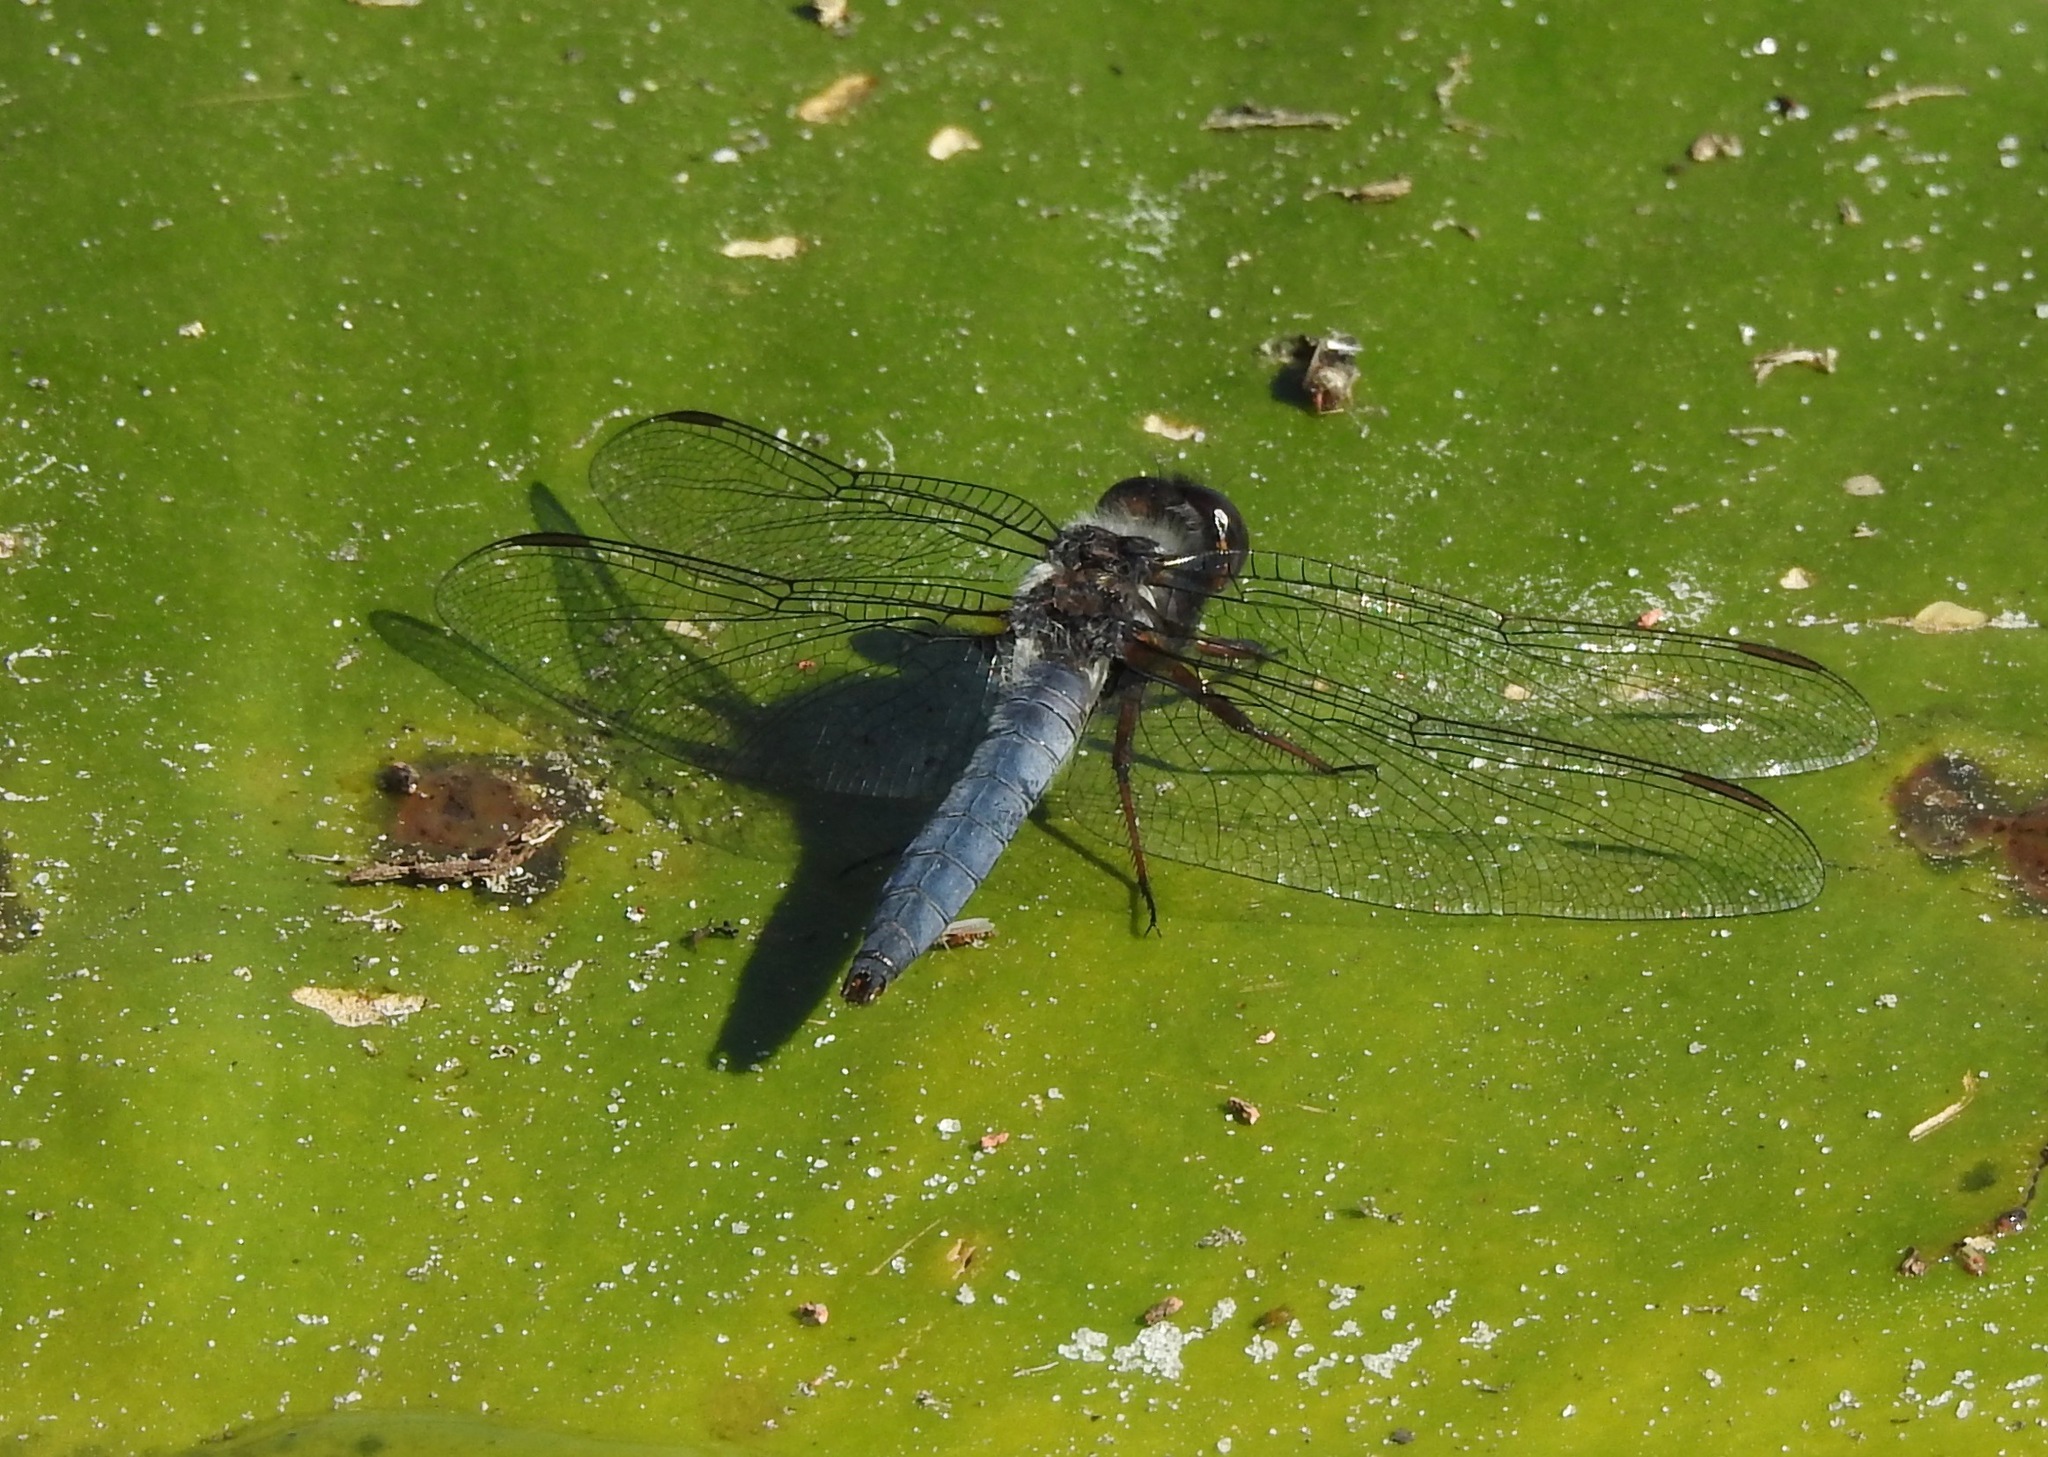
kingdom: Animalia
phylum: Arthropoda
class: Insecta
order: Odonata
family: Libellulidae
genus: Ladona
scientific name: Ladona deplanata
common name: Blue corporal
